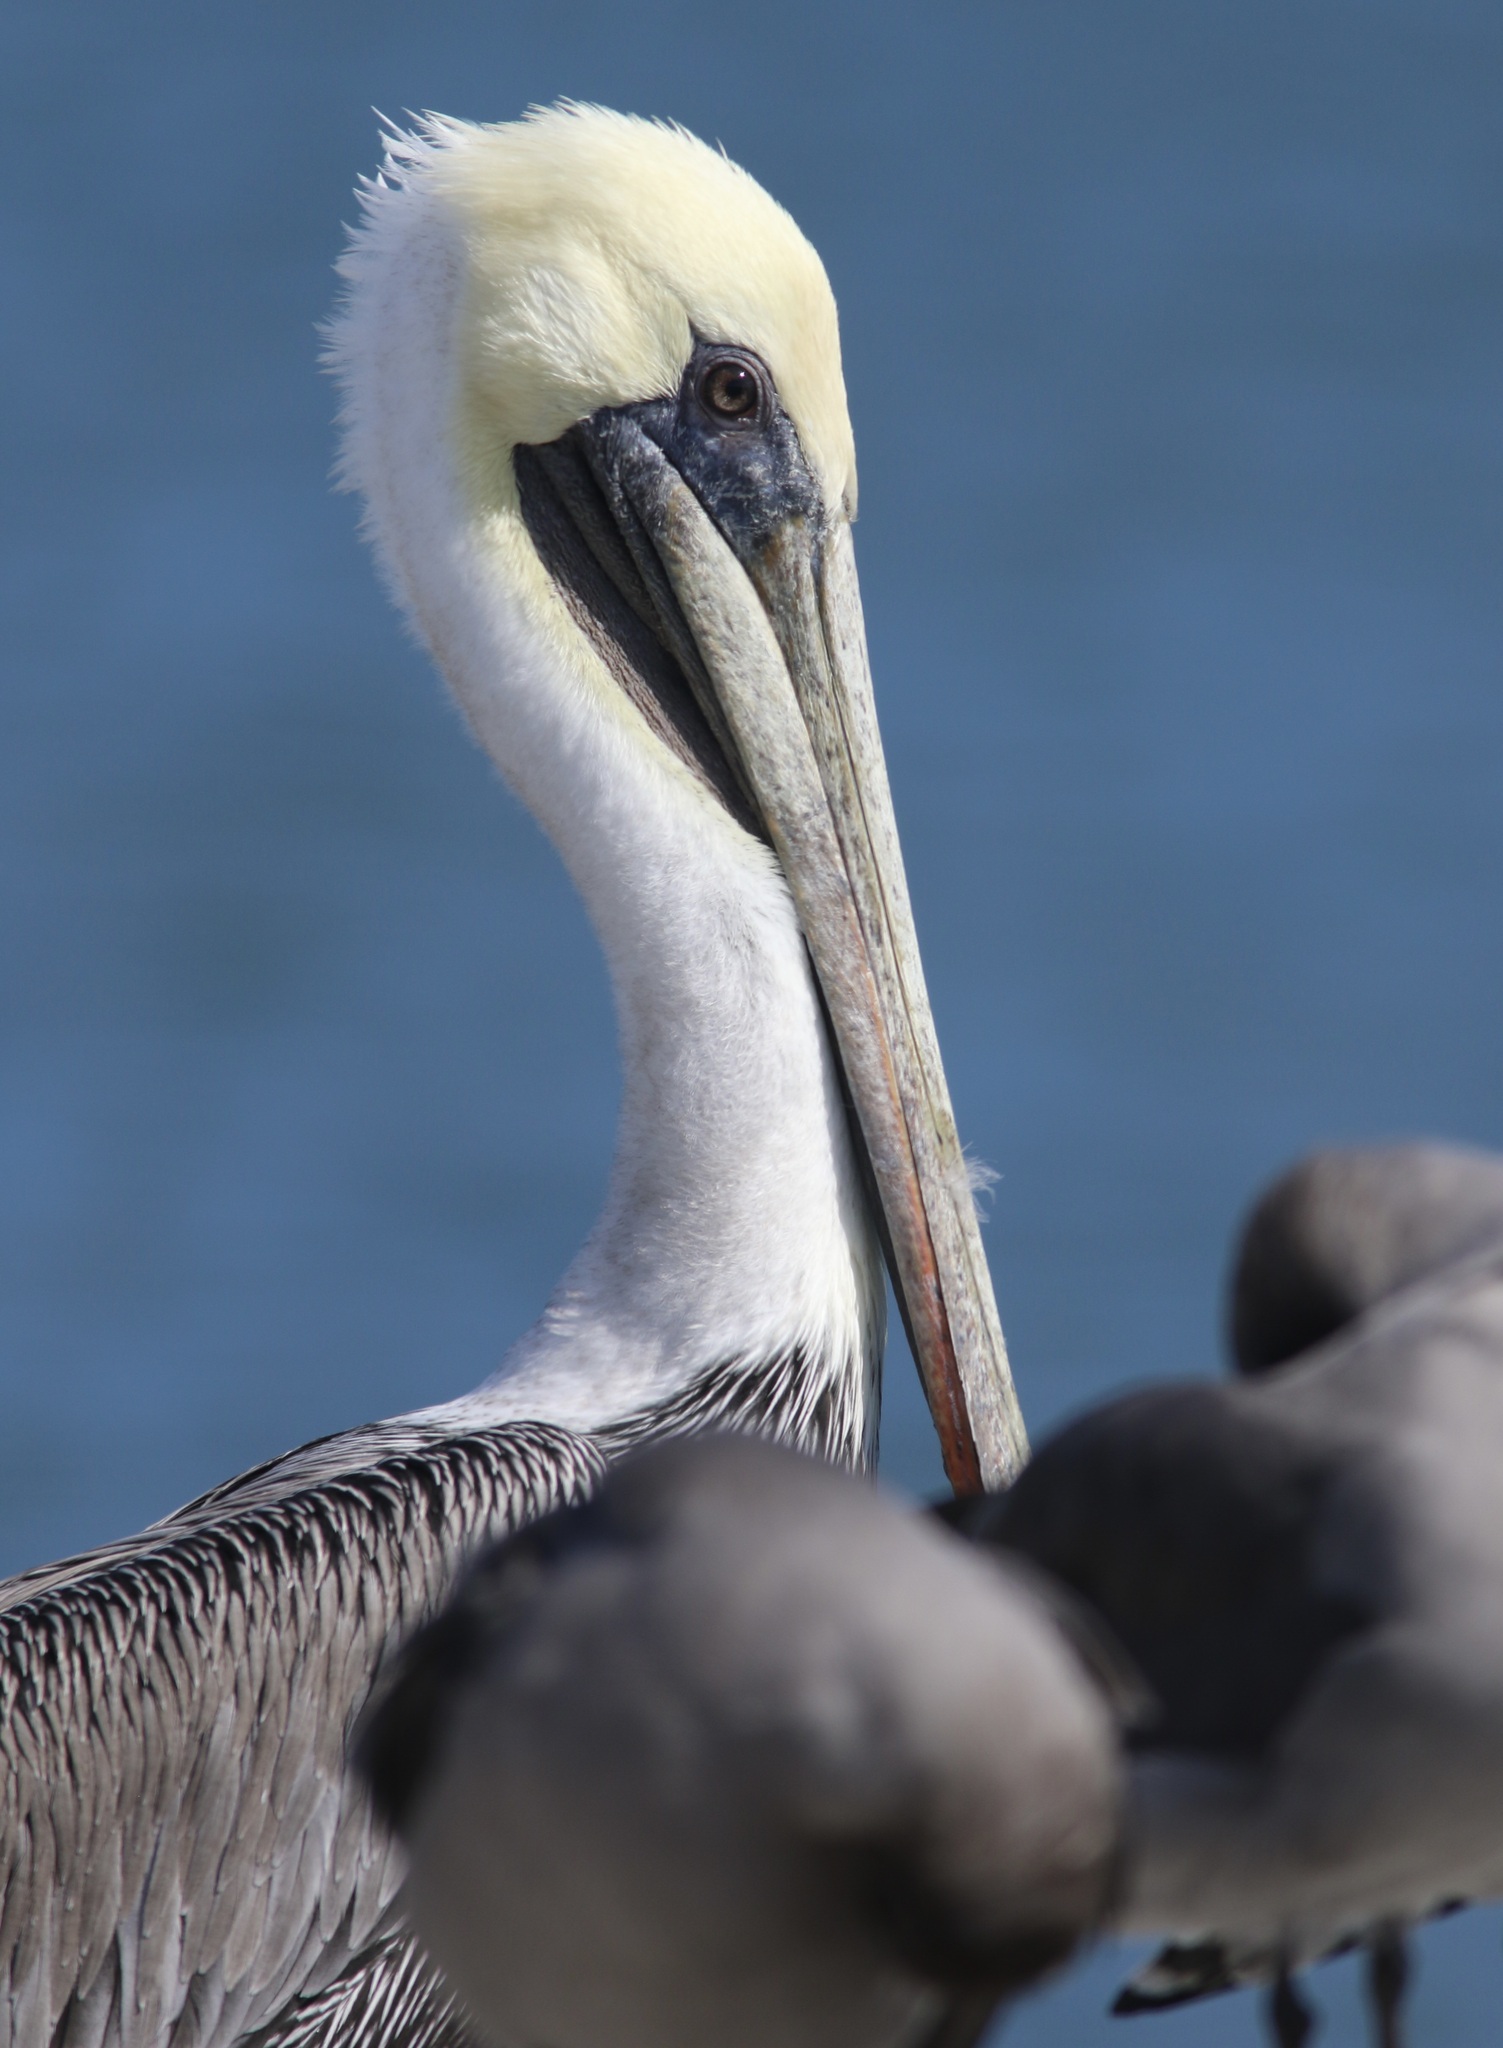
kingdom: Animalia
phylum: Chordata
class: Aves
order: Pelecaniformes
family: Pelecanidae
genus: Pelecanus
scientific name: Pelecanus occidentalis
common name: Brown pelican
